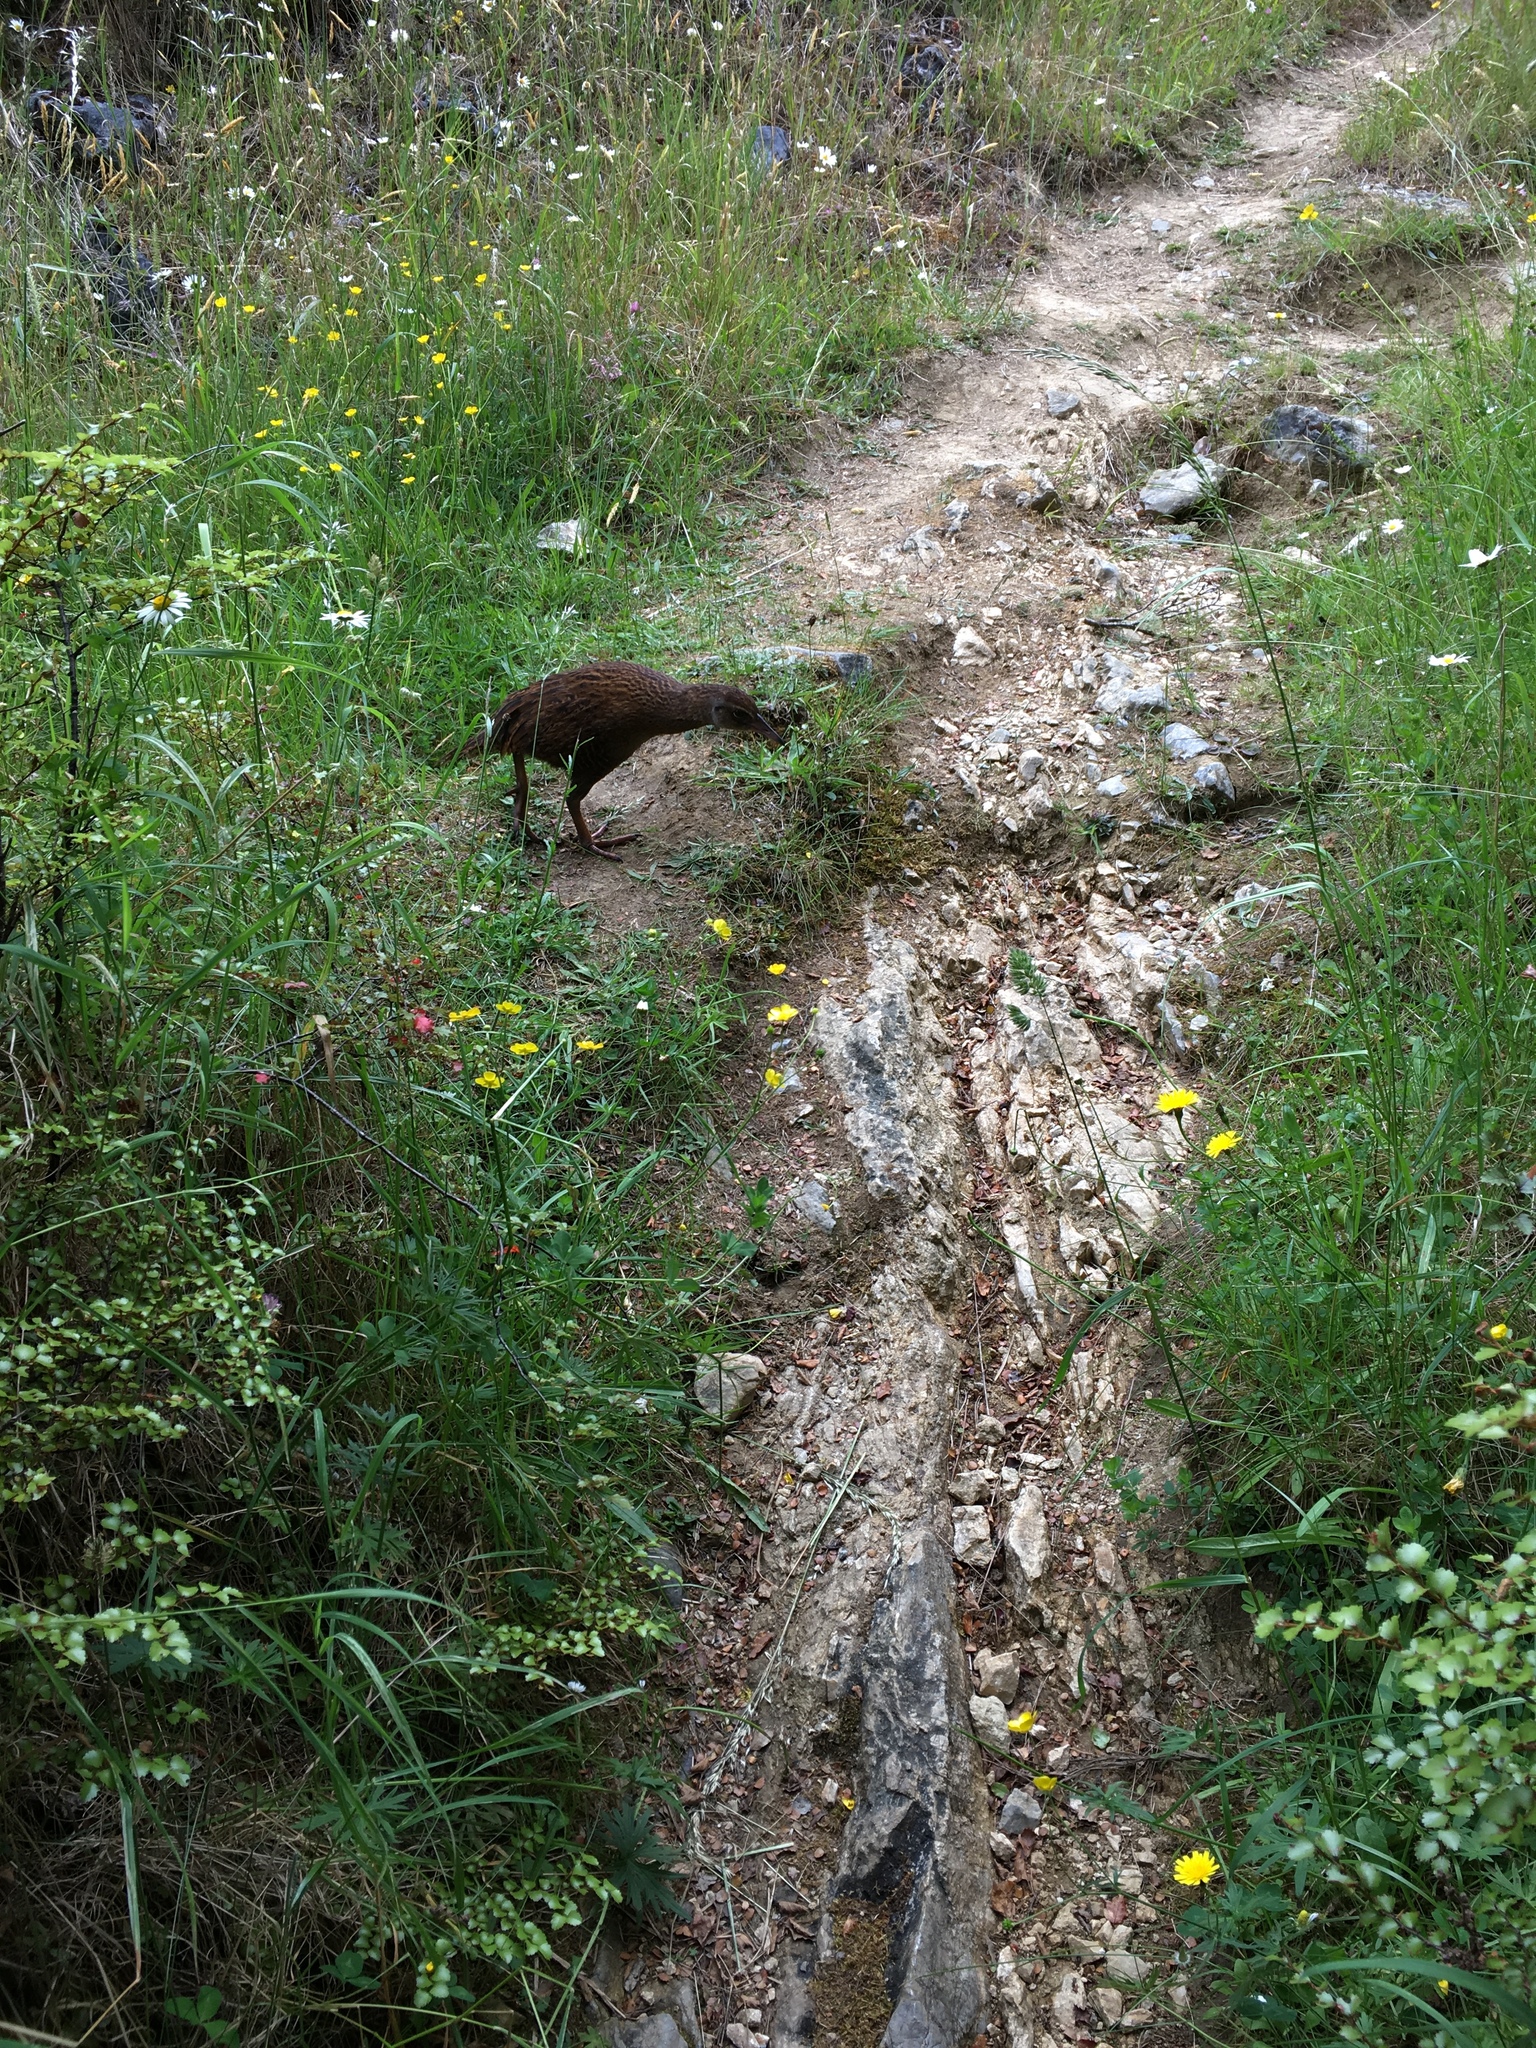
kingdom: Animalia
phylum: Chordata
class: Aves
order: Gruiformes
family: Rallidae
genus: Gallirallus
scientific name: Gallirallus australis
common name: Weka
